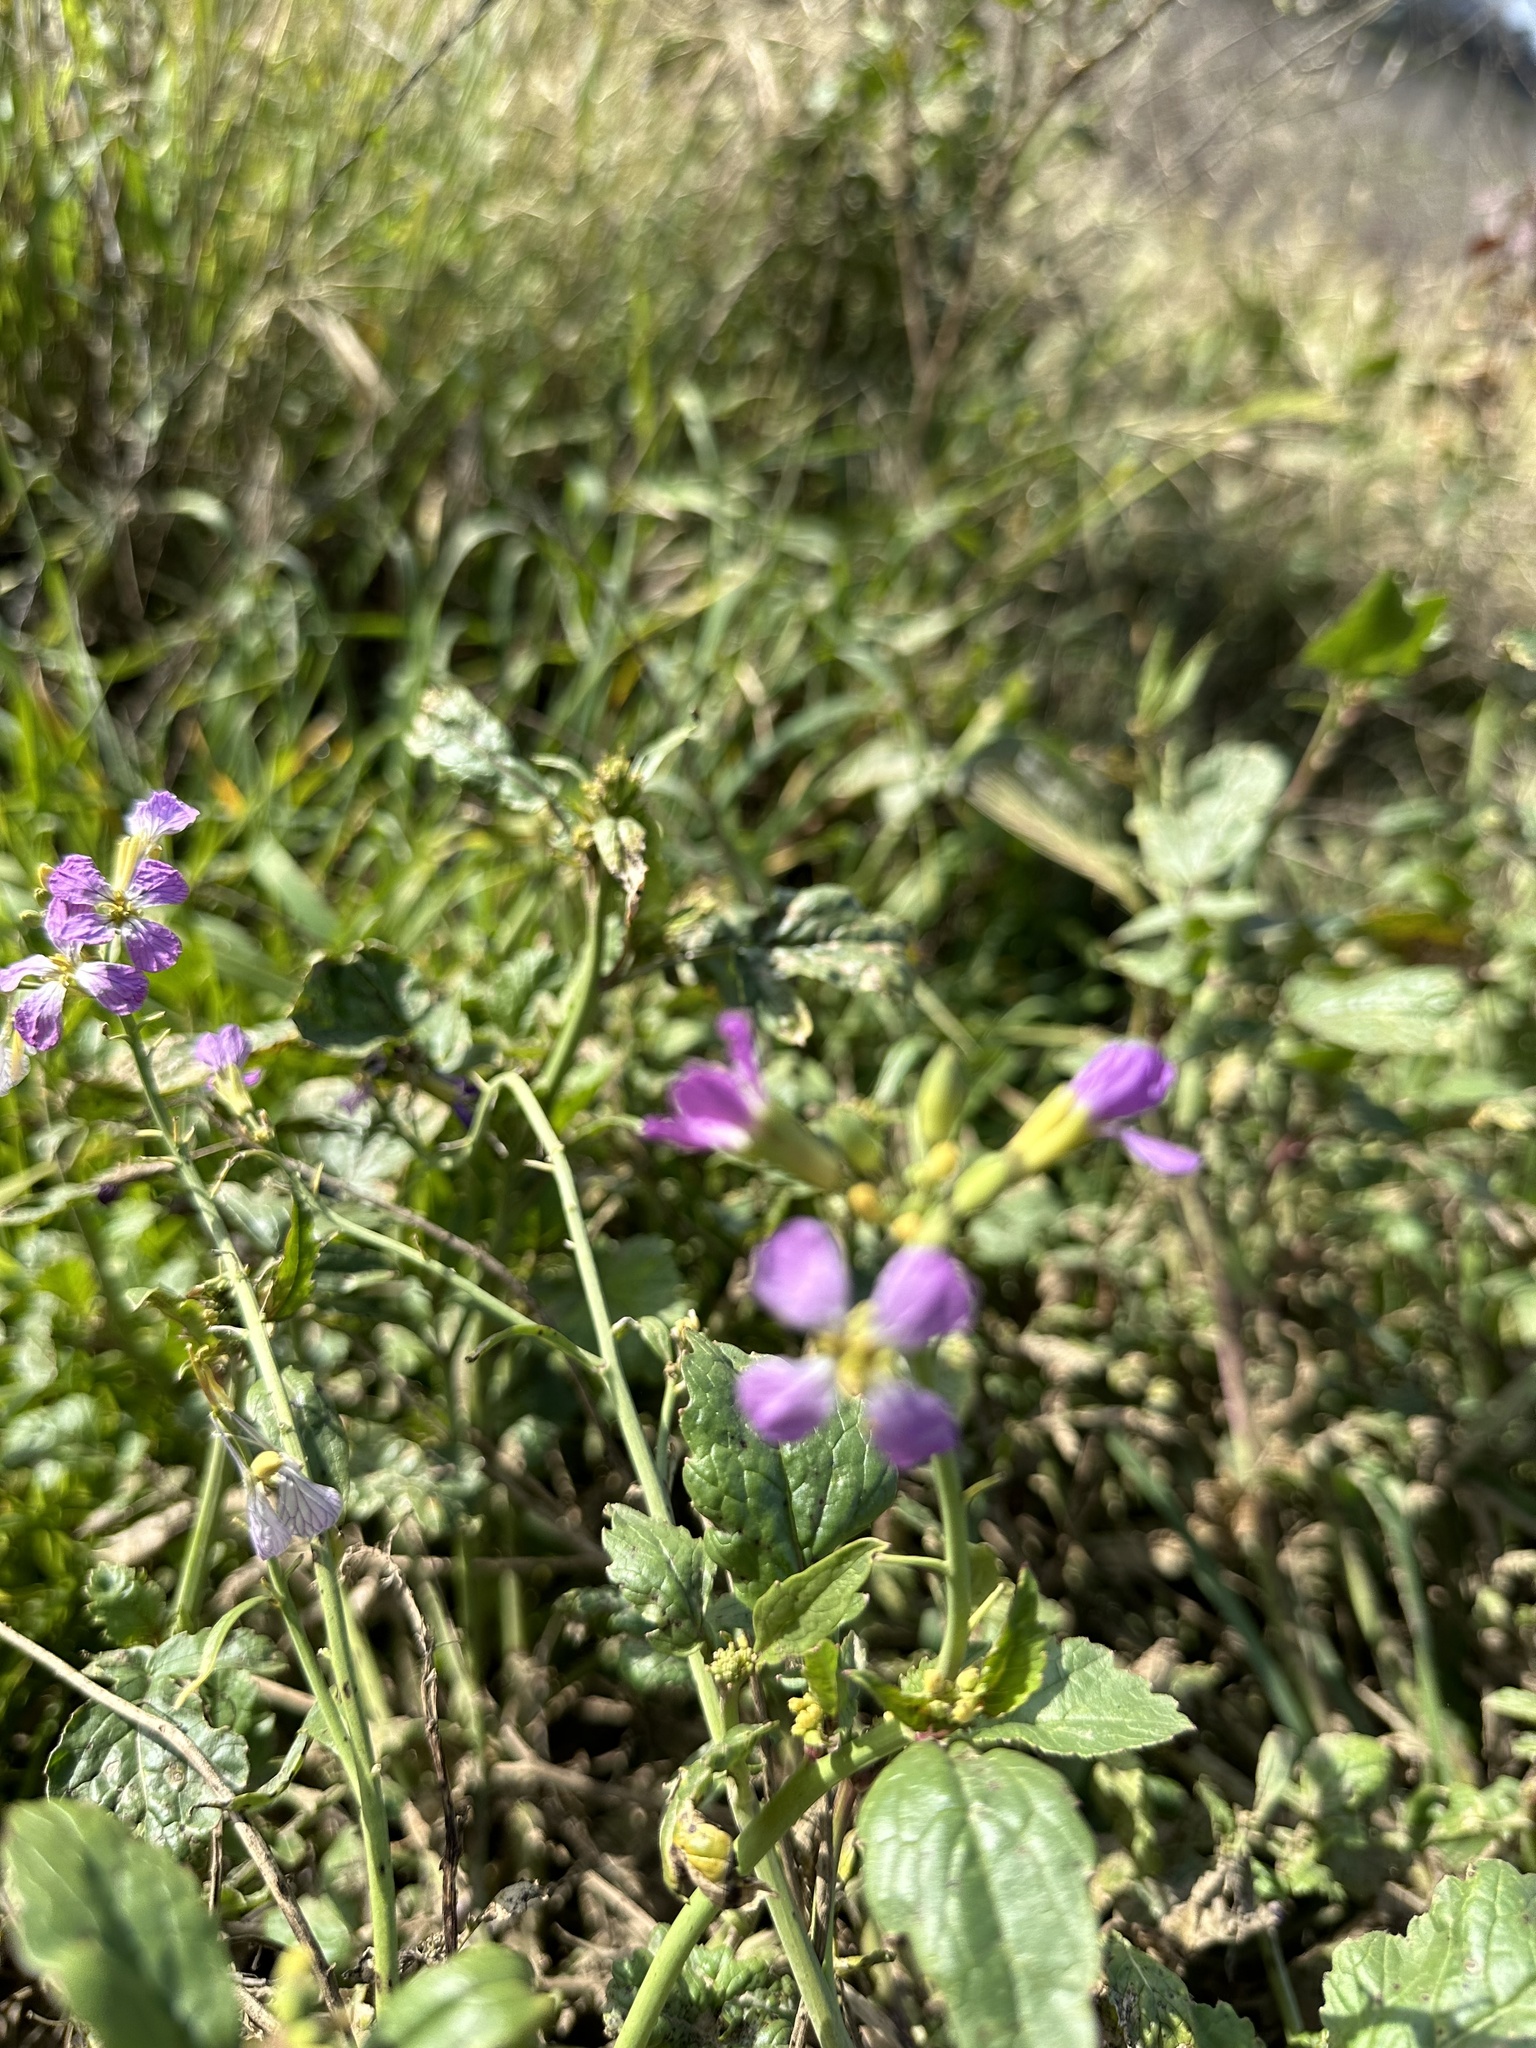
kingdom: Plantae
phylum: Tracheophyta
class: Magnoliopsida
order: Brassicales
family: Brassicaceae
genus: Raphanus
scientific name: Raphanus sativus
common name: Cultivated radish
